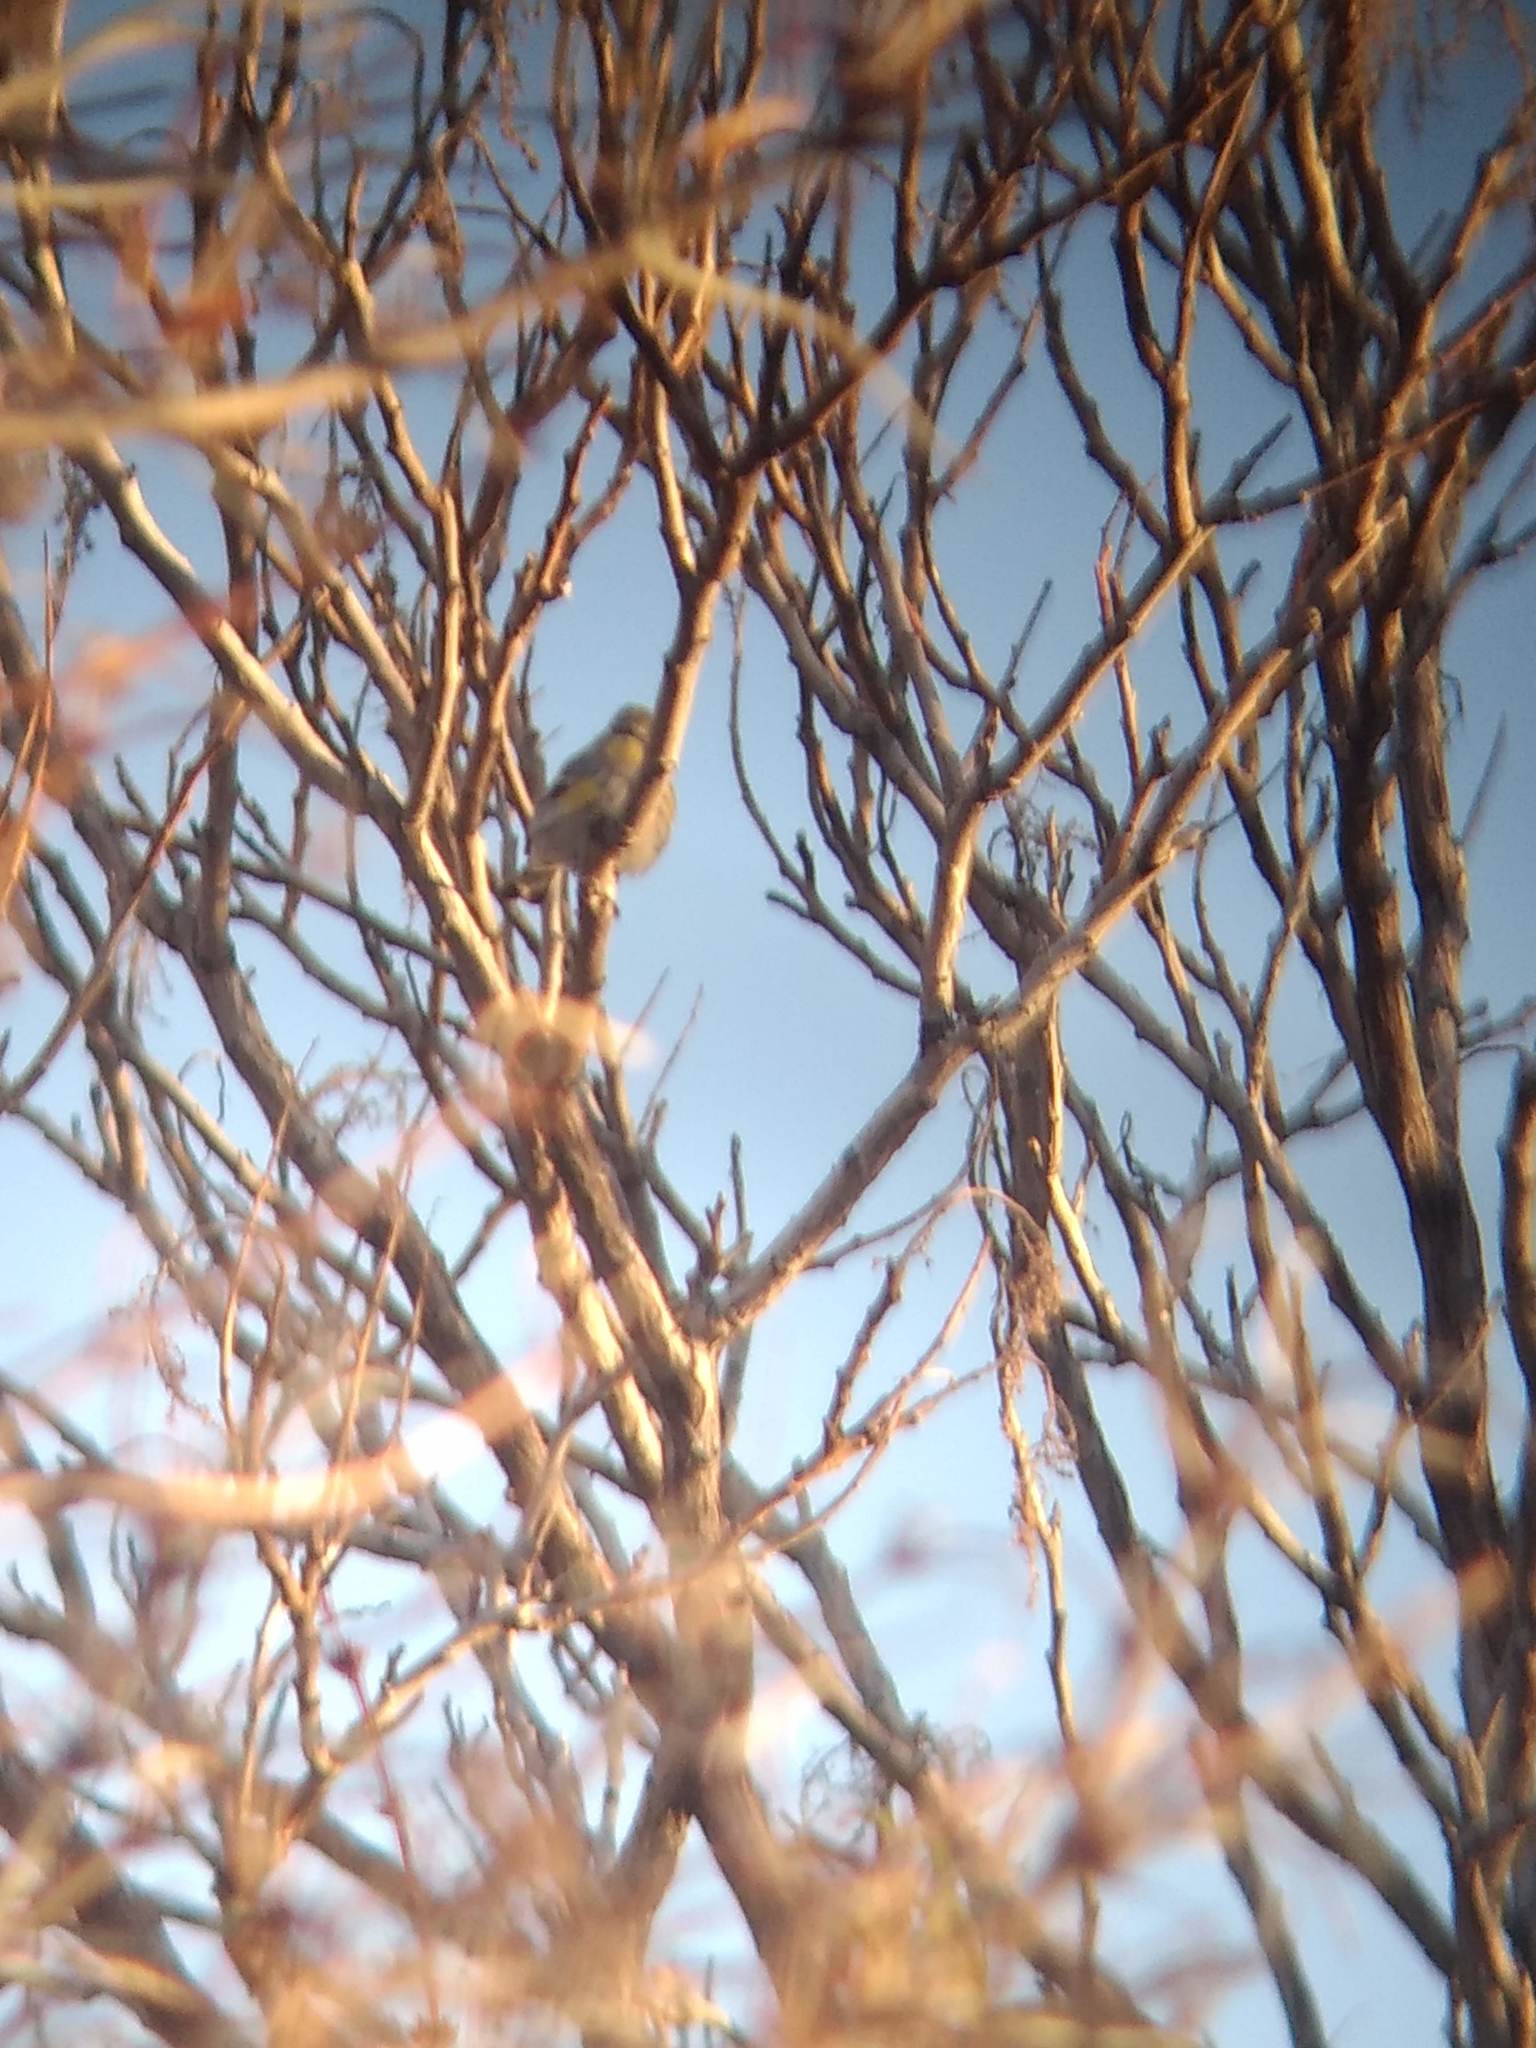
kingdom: Animalia
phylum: Chordata
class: Aves
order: Passeriformes
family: Parulidae
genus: Setophaga
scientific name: Setophaga coronata
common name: Myrtle warbler
